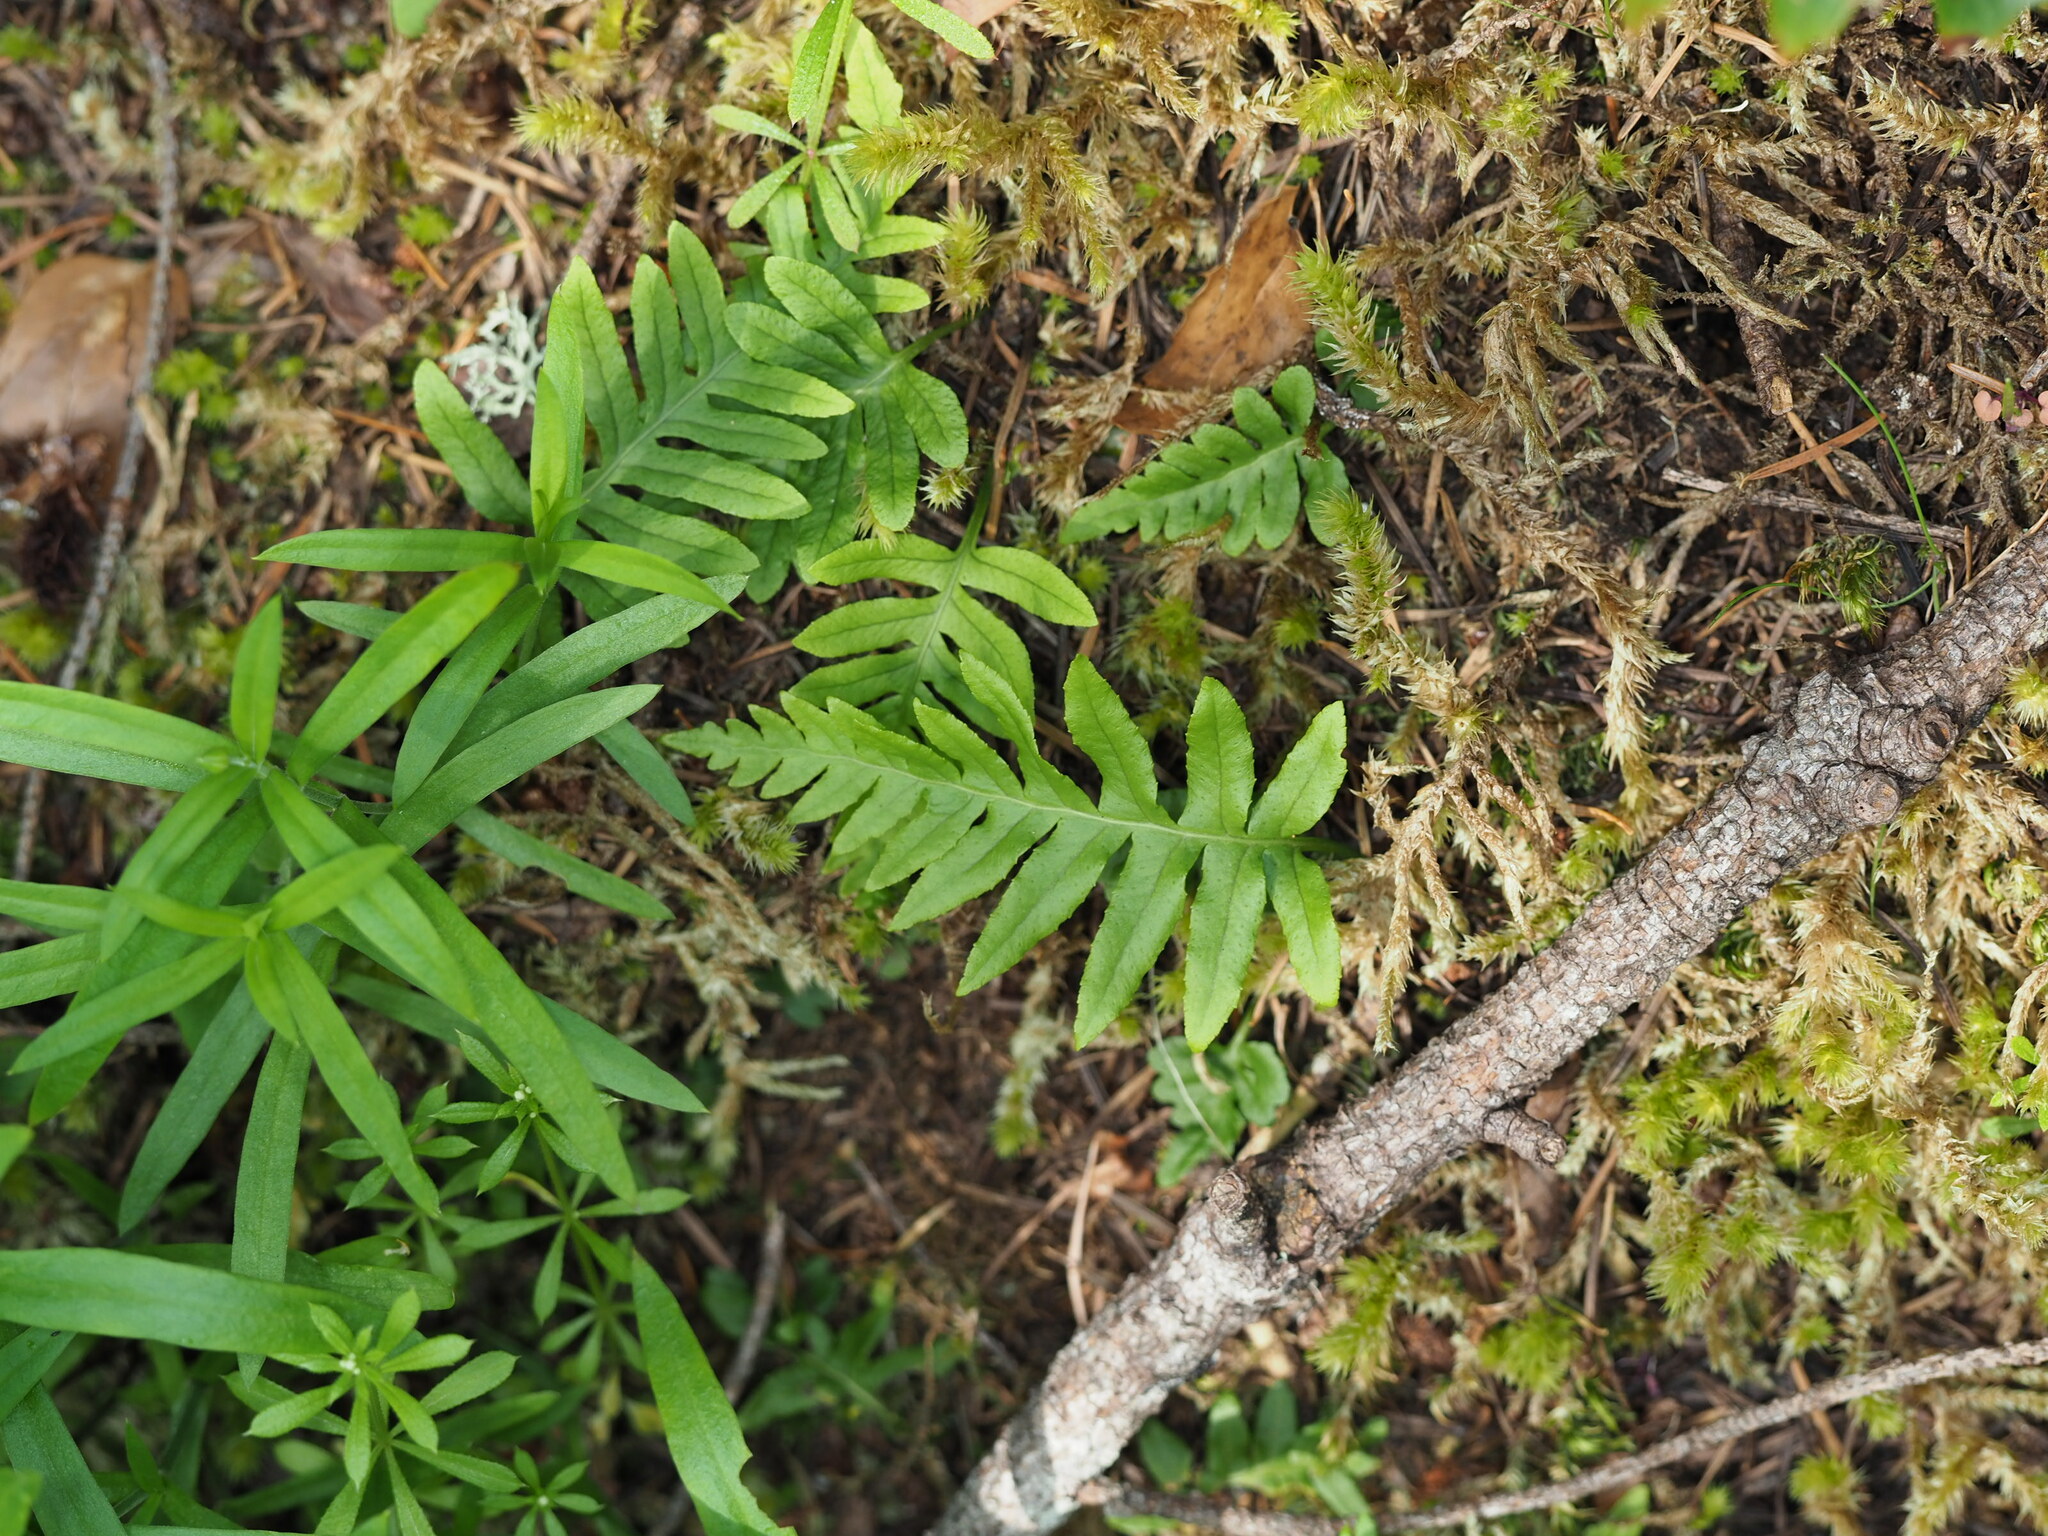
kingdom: Plantae
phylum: Tracheophyta
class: Polypodiopsida
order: Polypodiales
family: Polypodiaceae
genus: Polypodium
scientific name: Polypodium glycyrrhiza
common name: Licorice fern
